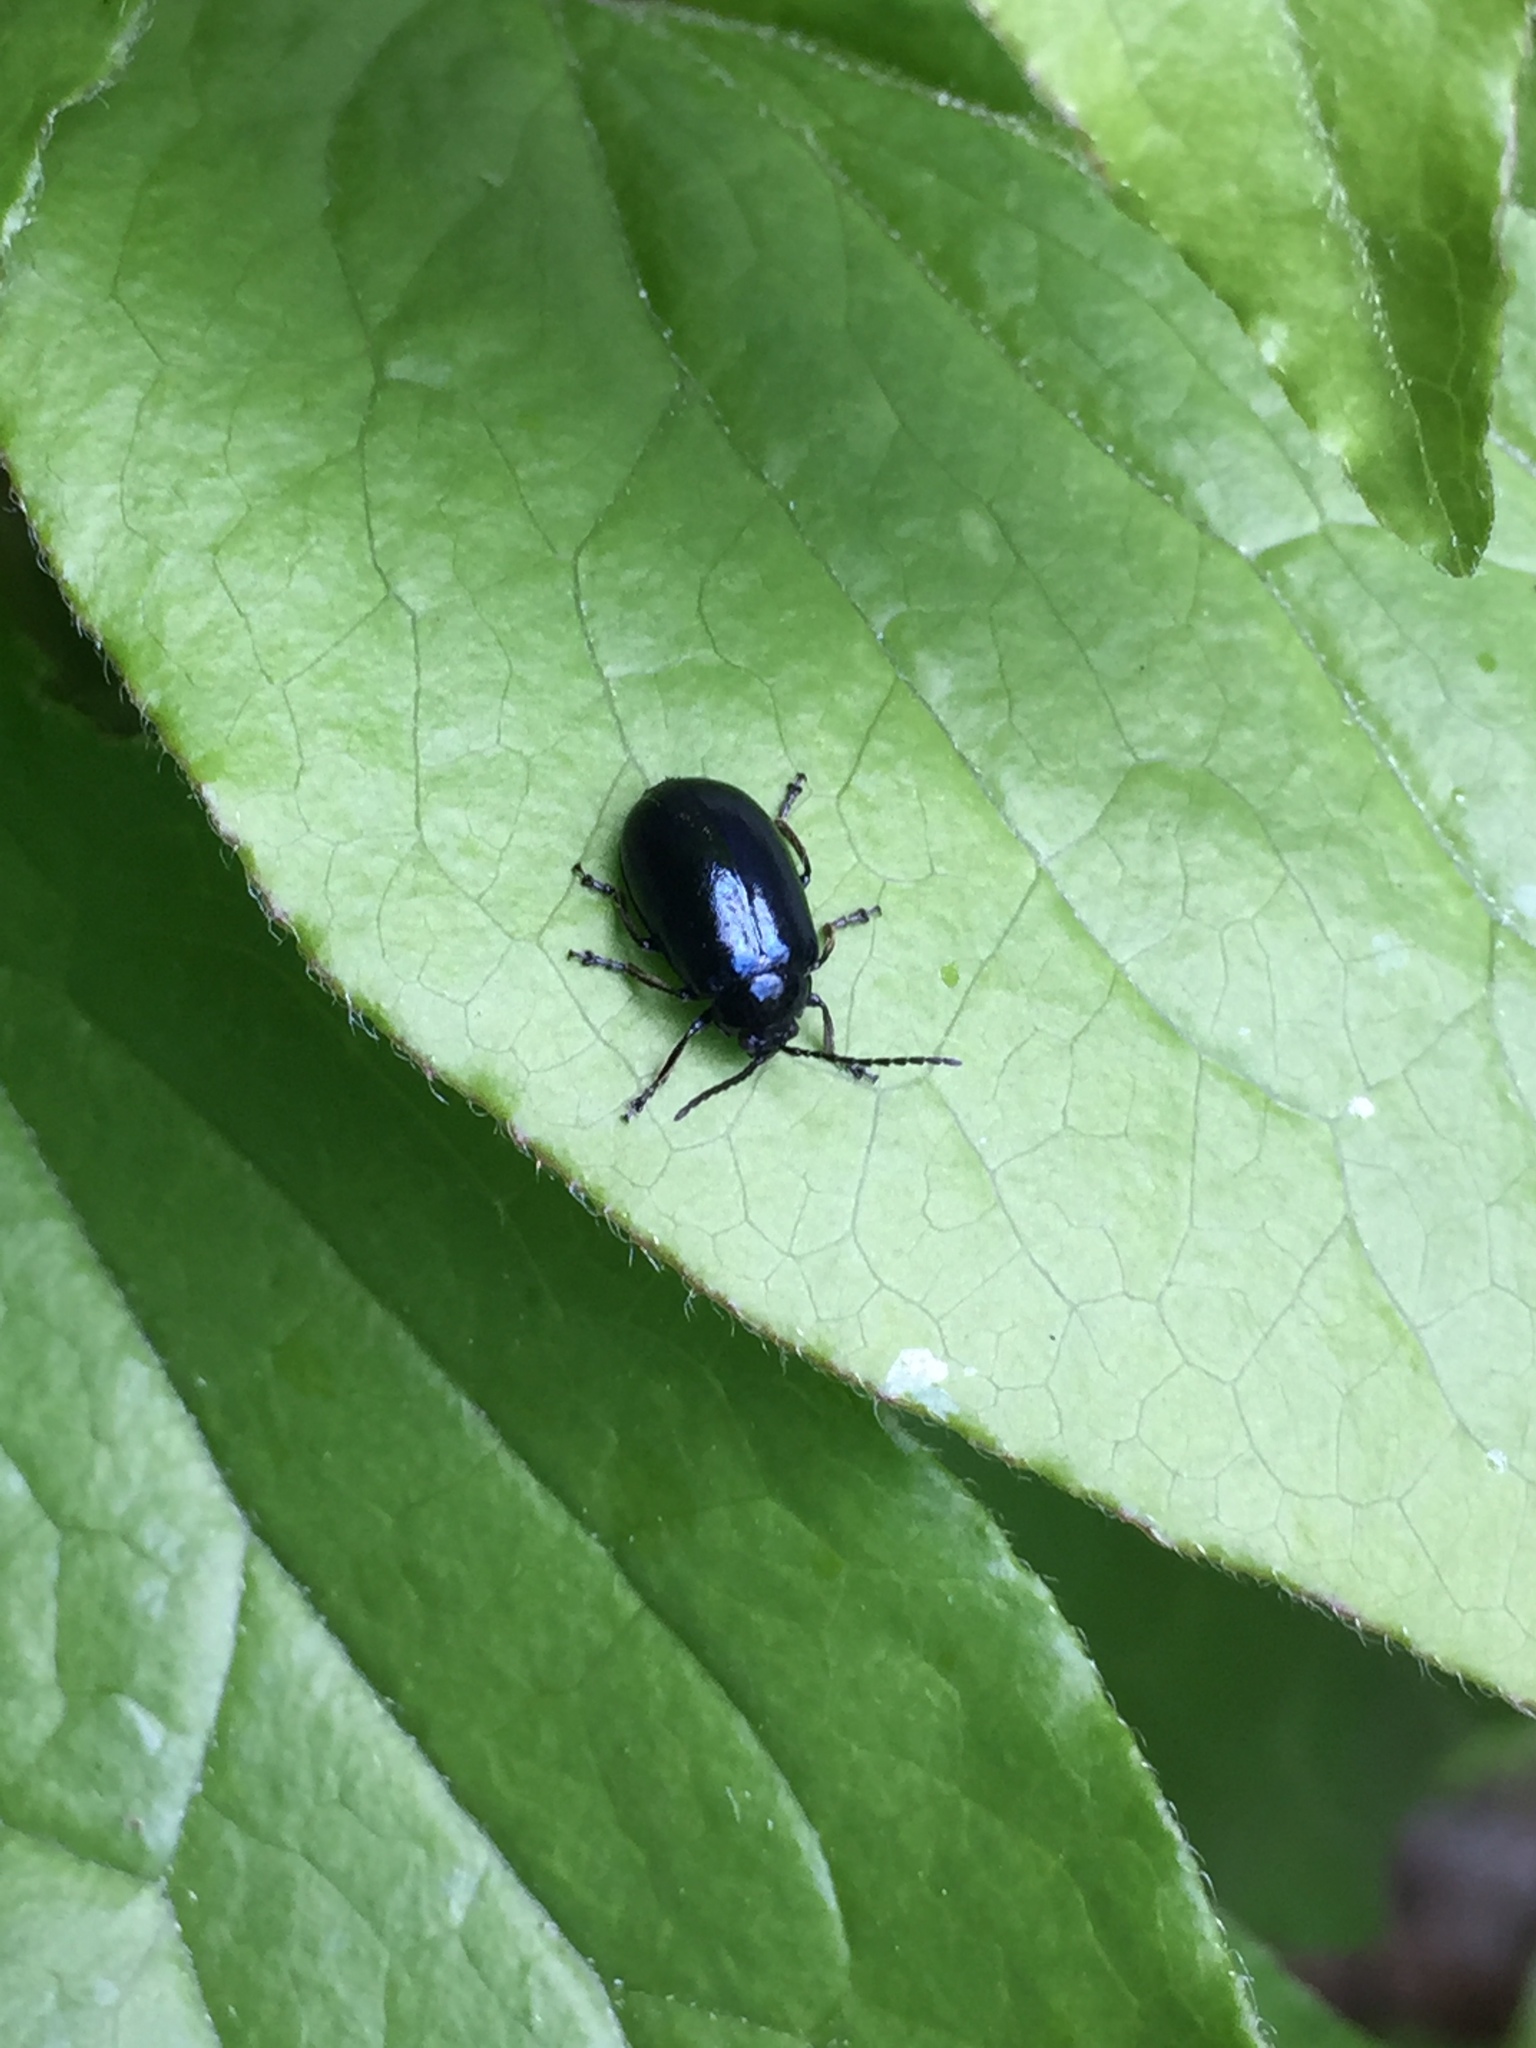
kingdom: Animalia
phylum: Arthropoda
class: Insecta
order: Coleoptera
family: Chrysomelidae
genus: Agelastica
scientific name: Agelastica alni
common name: Alder leaf beetle
